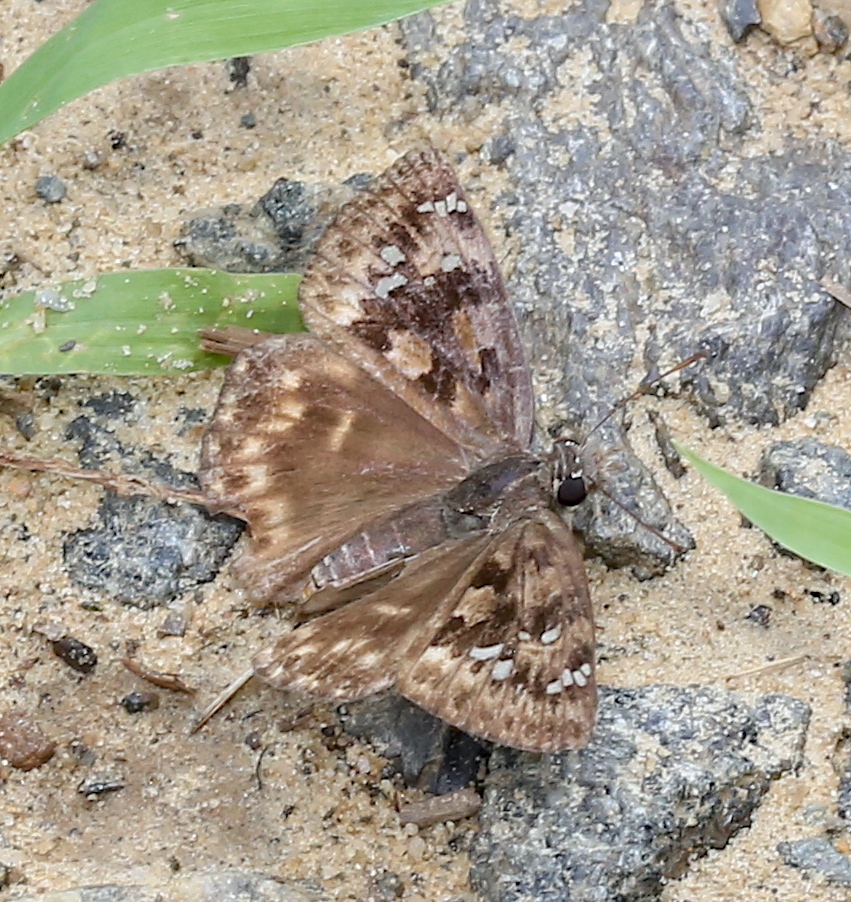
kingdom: Animalia
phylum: Arthropoda
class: Insecta
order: Lepidoptera
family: Hesperiidae
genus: Erynnis
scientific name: Erynnis horatius
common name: Horace's duskywing
